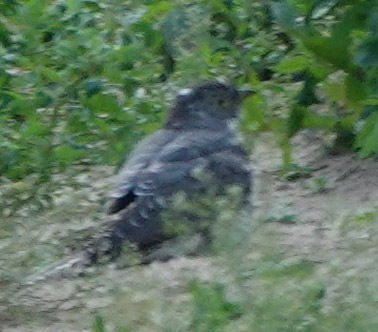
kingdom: Animalia
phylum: Chordata
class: Aves
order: Cuculiformes
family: Cuculidae
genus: Cuculus
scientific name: Cuculus canorus
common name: Common cuckoo
